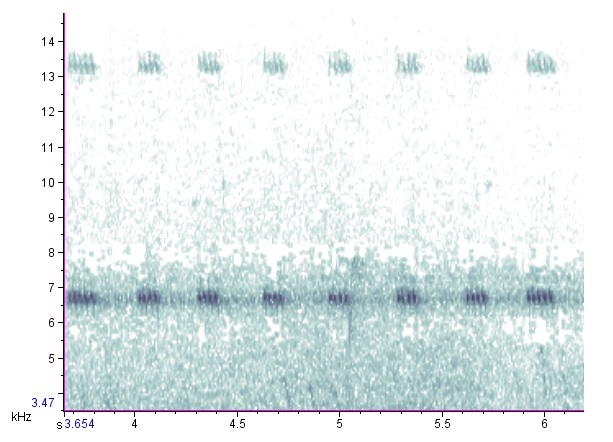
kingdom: Animalia
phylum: Arthropoda
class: Insecta
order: Orthoptera
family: Trigonidiidae
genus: Cyrtoxipha
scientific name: Cyrtoxipha columbiana
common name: Columbian trig
